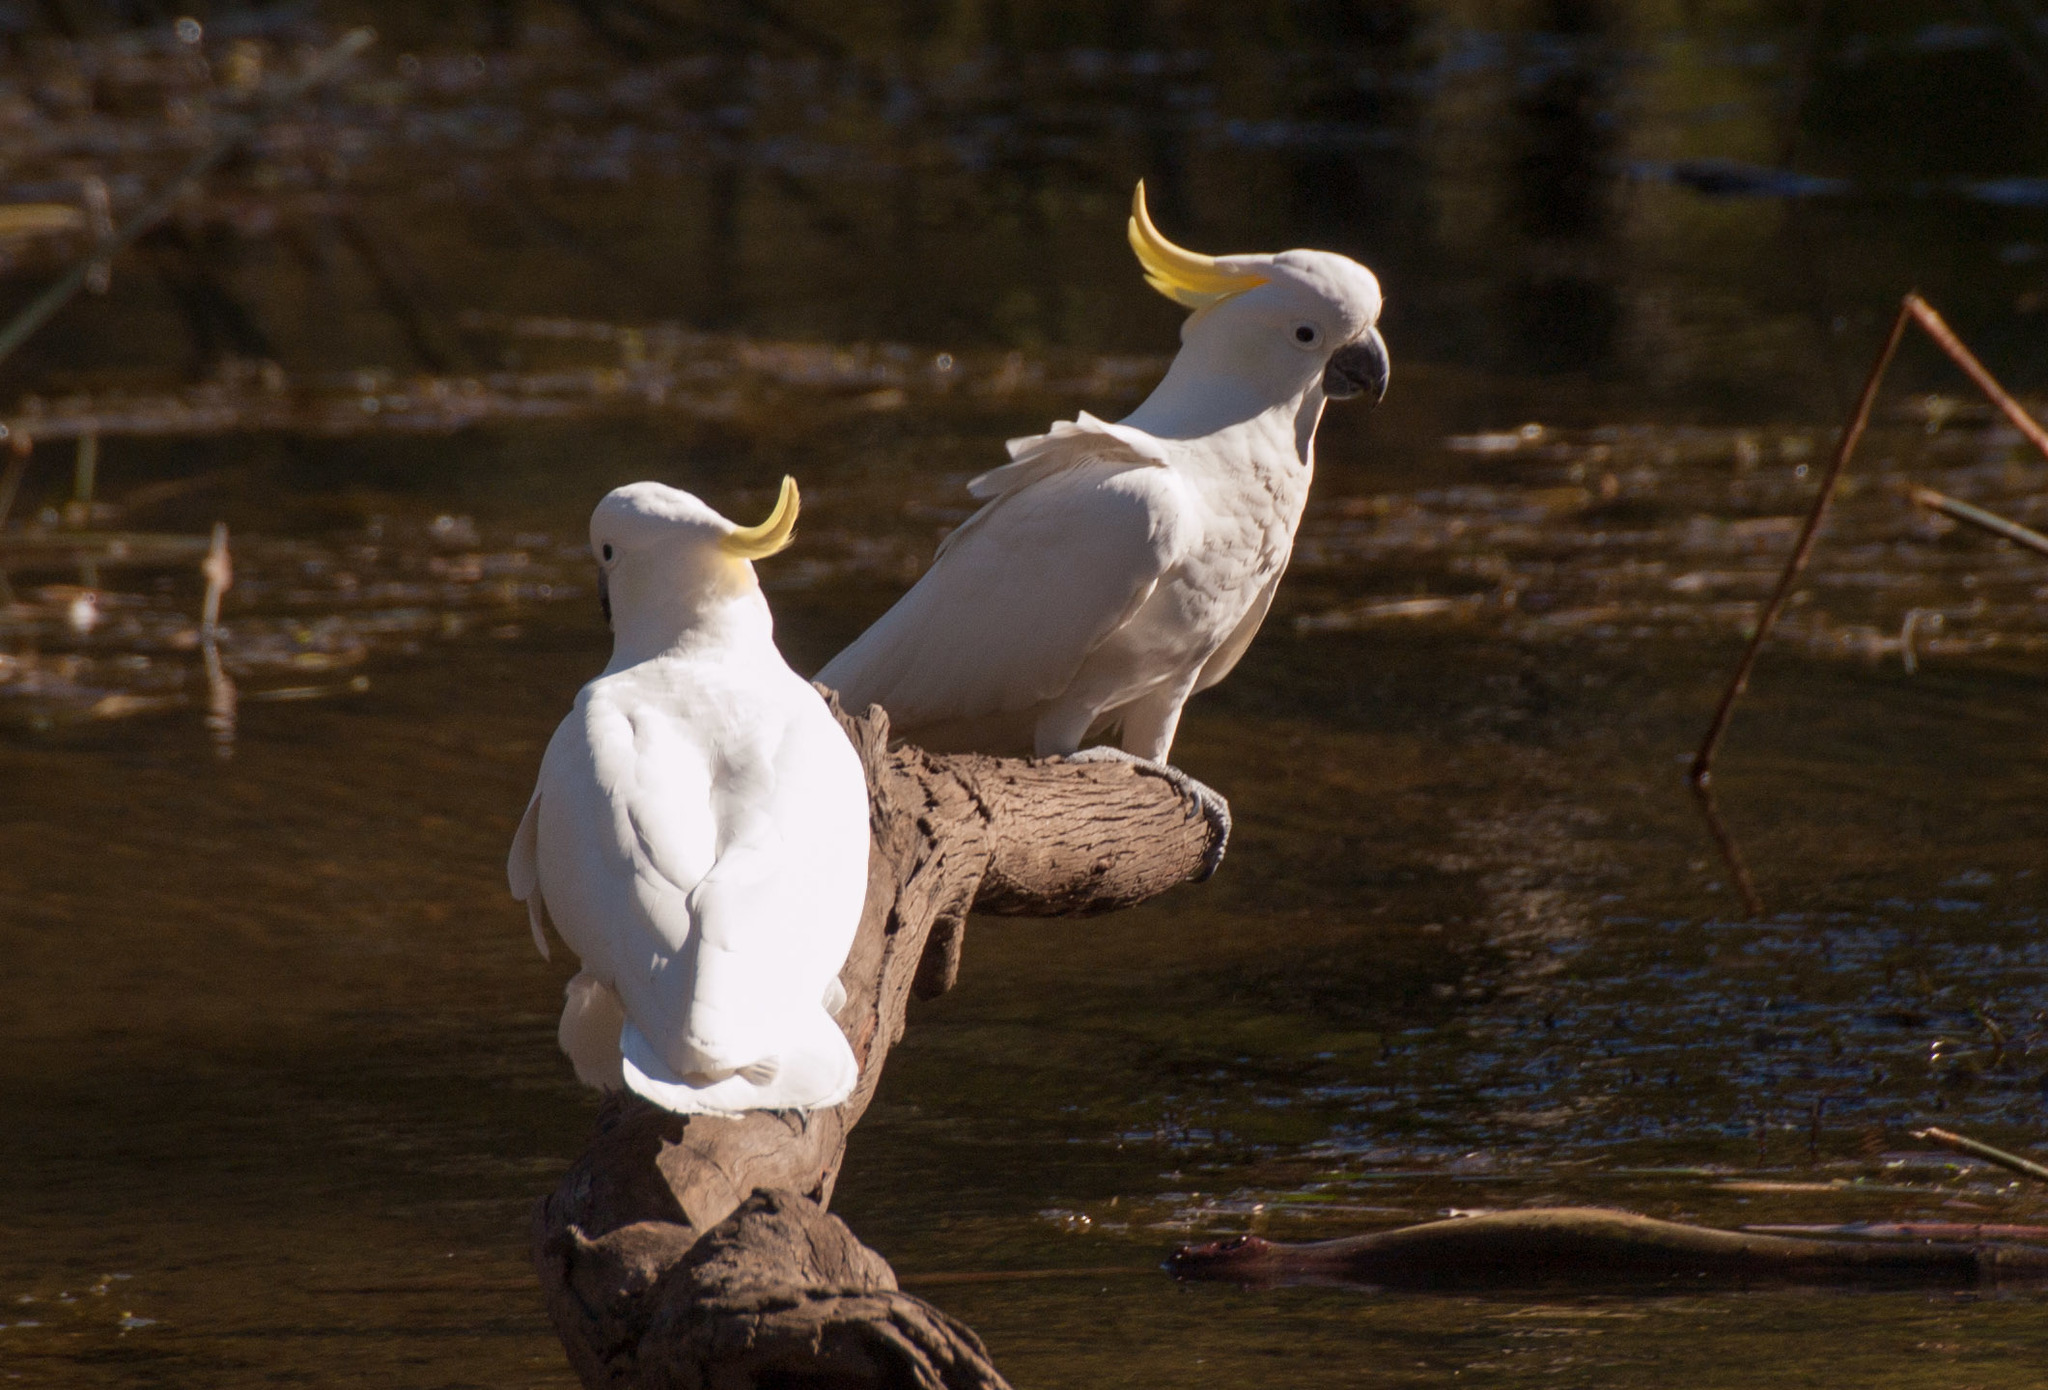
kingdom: Animalia
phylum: Chordata
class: Aves
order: Psittaciformes
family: Psittacidae
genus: Cacatua
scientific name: Cacatua galerita
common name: Sulphur-crested cockatoo
